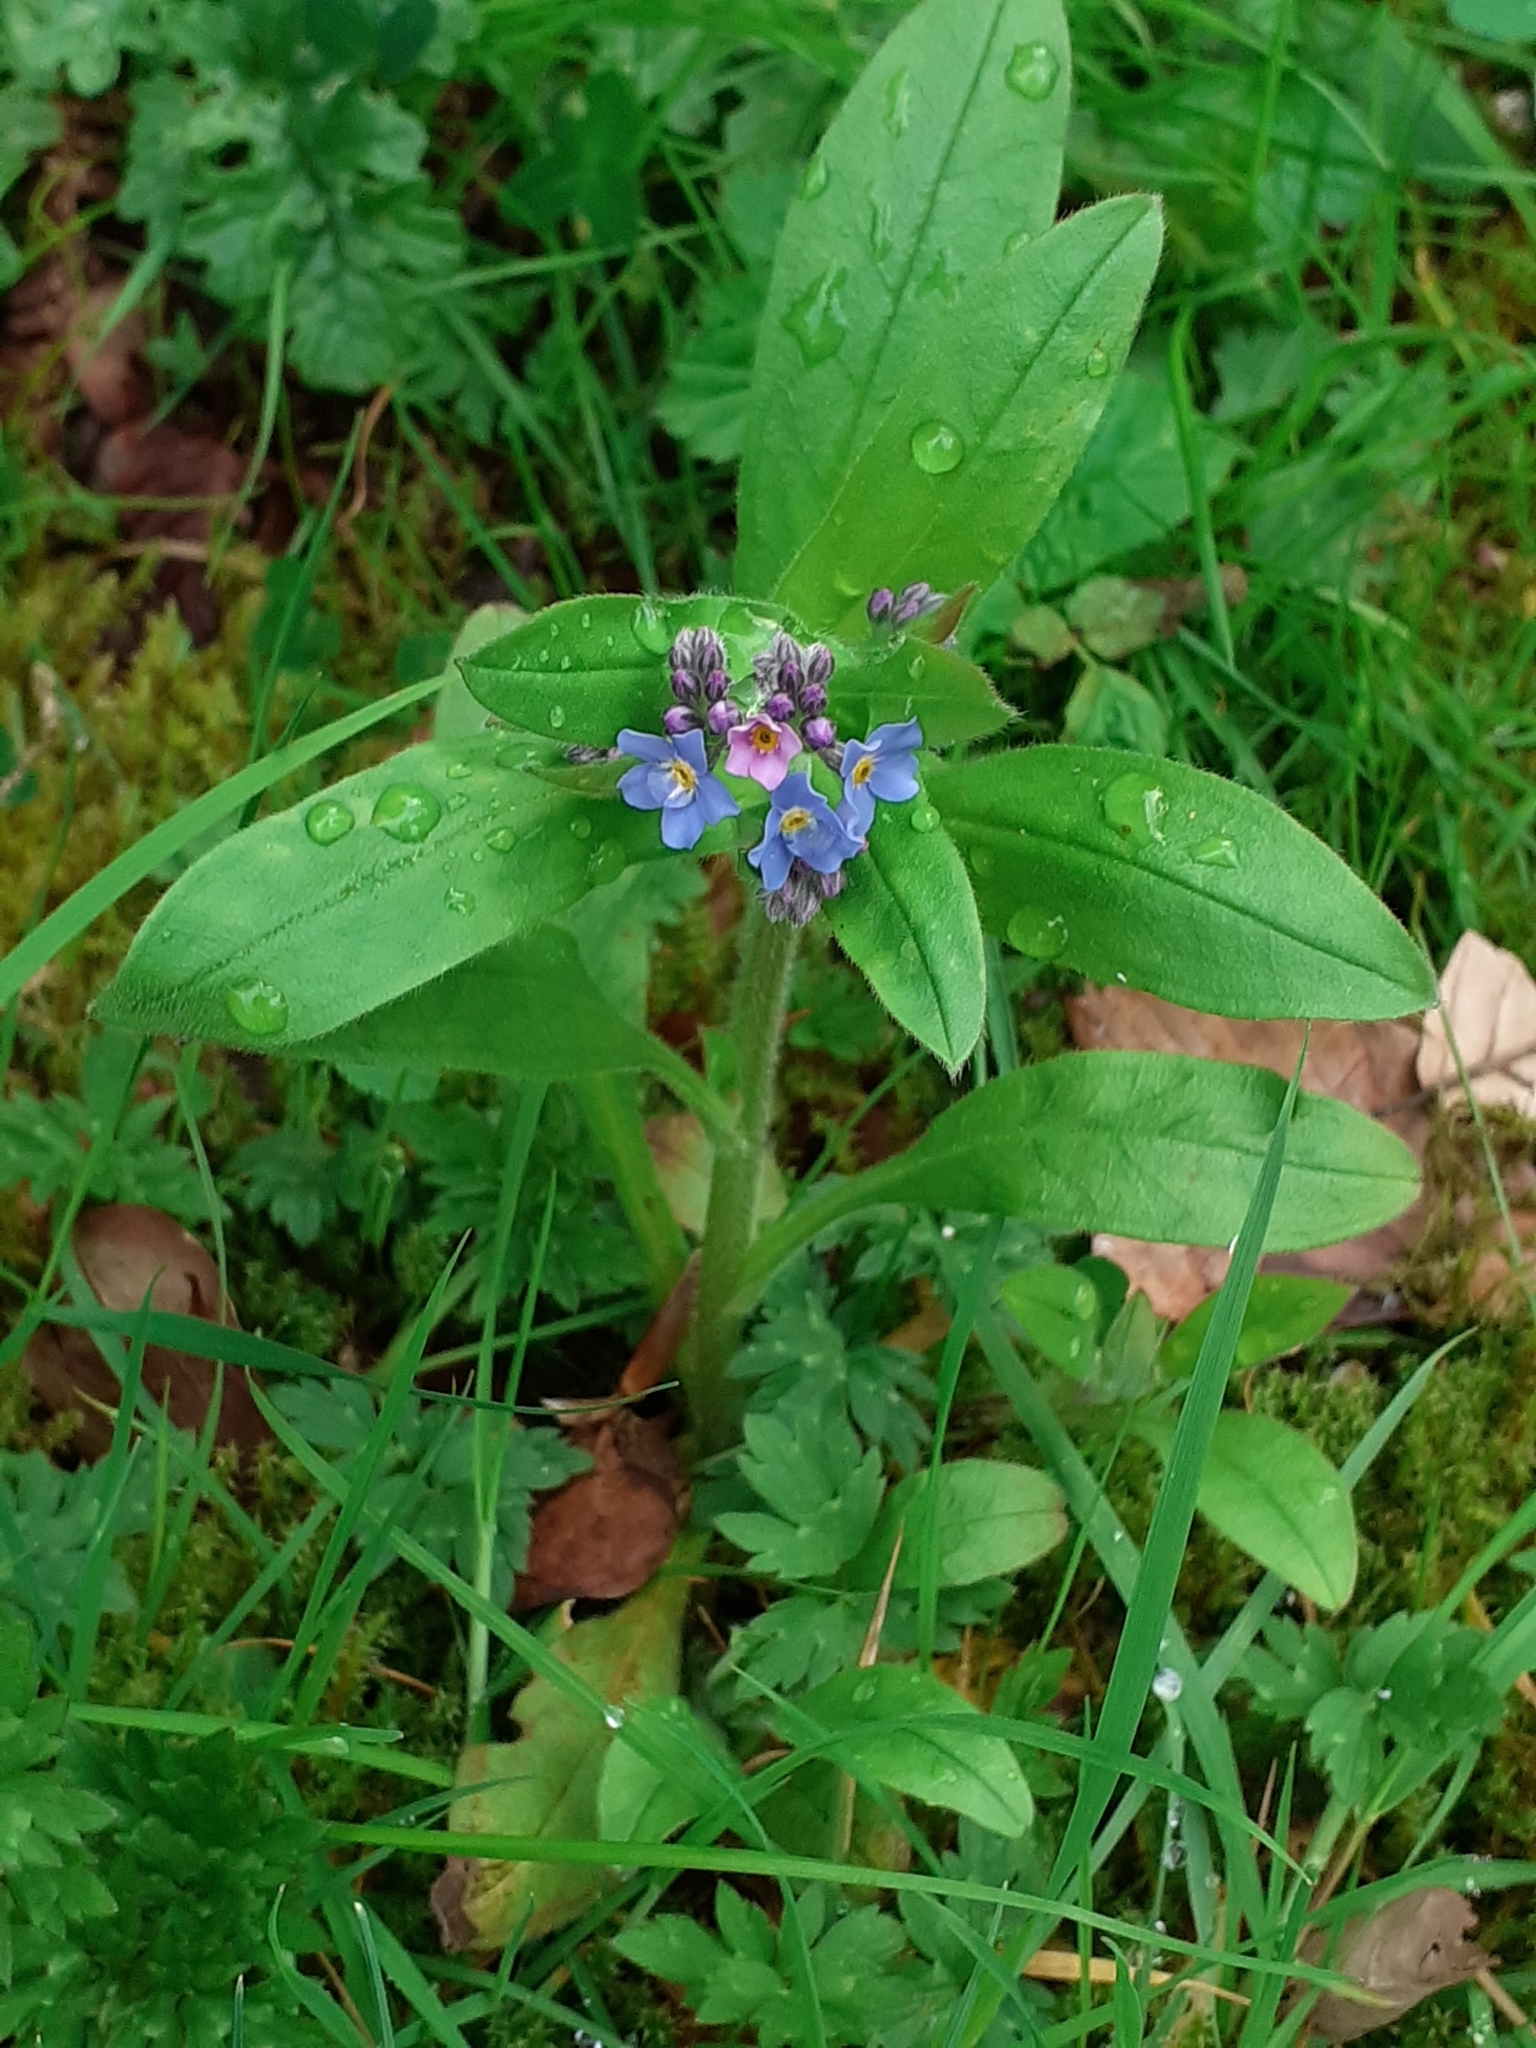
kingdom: Plantae
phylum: Tracheophyta
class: Magnoliopsida
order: Boraginales
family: Boraginaceae
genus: Myosotis
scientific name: Myosotis sylvatica
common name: Wood forget-me-not
